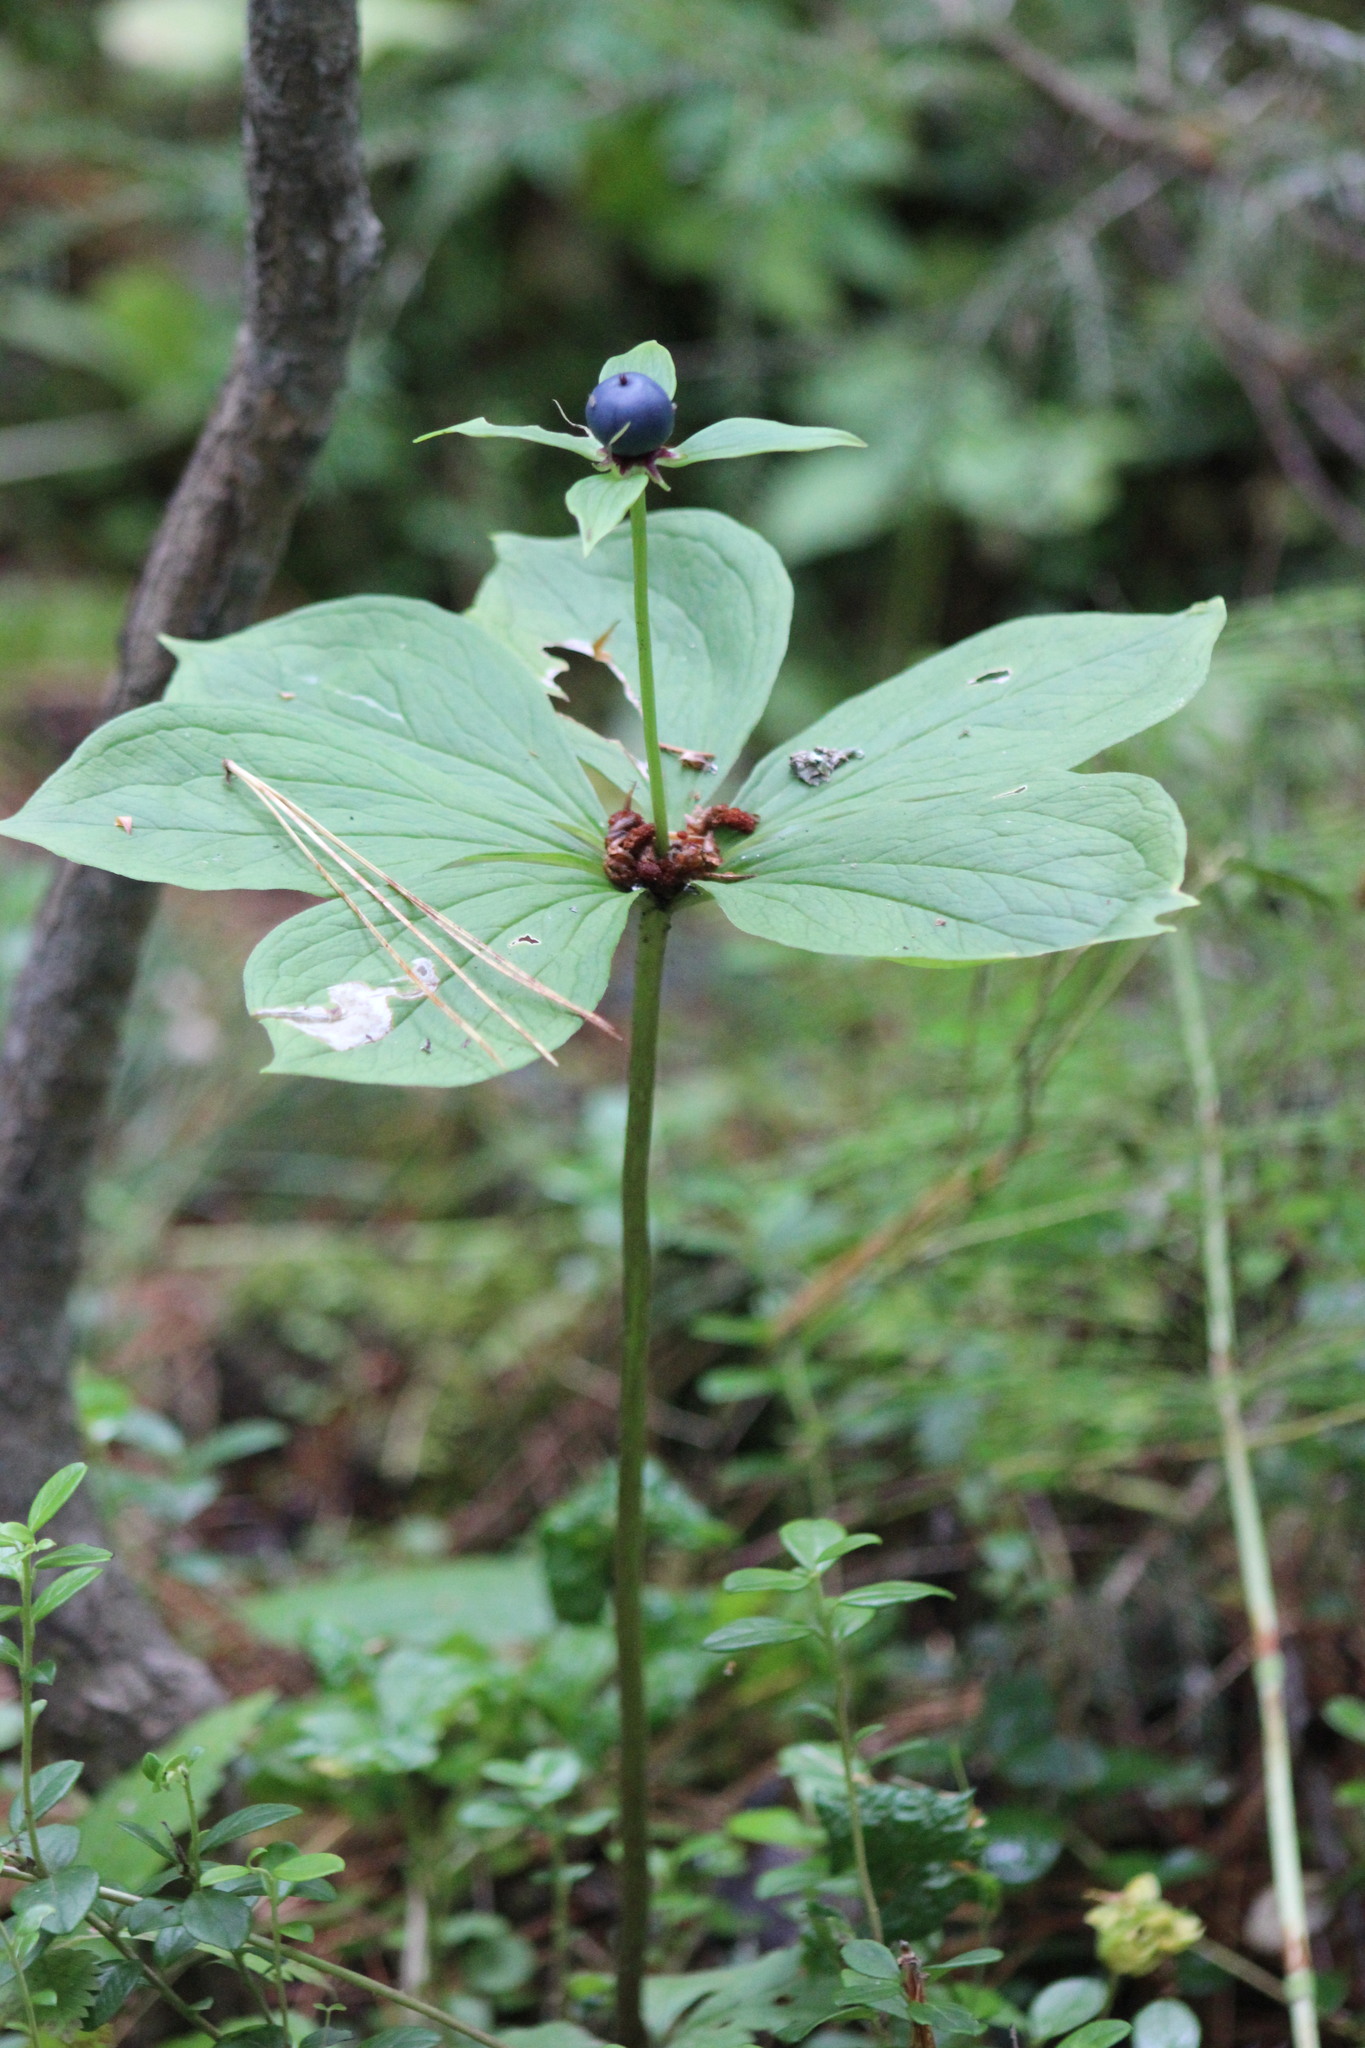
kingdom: Plantae
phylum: Tracheophyta
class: Liliopsida
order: Liliales
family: Melanthiaceae
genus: Paris
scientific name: Paris quadrifolia
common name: Herb-paris
